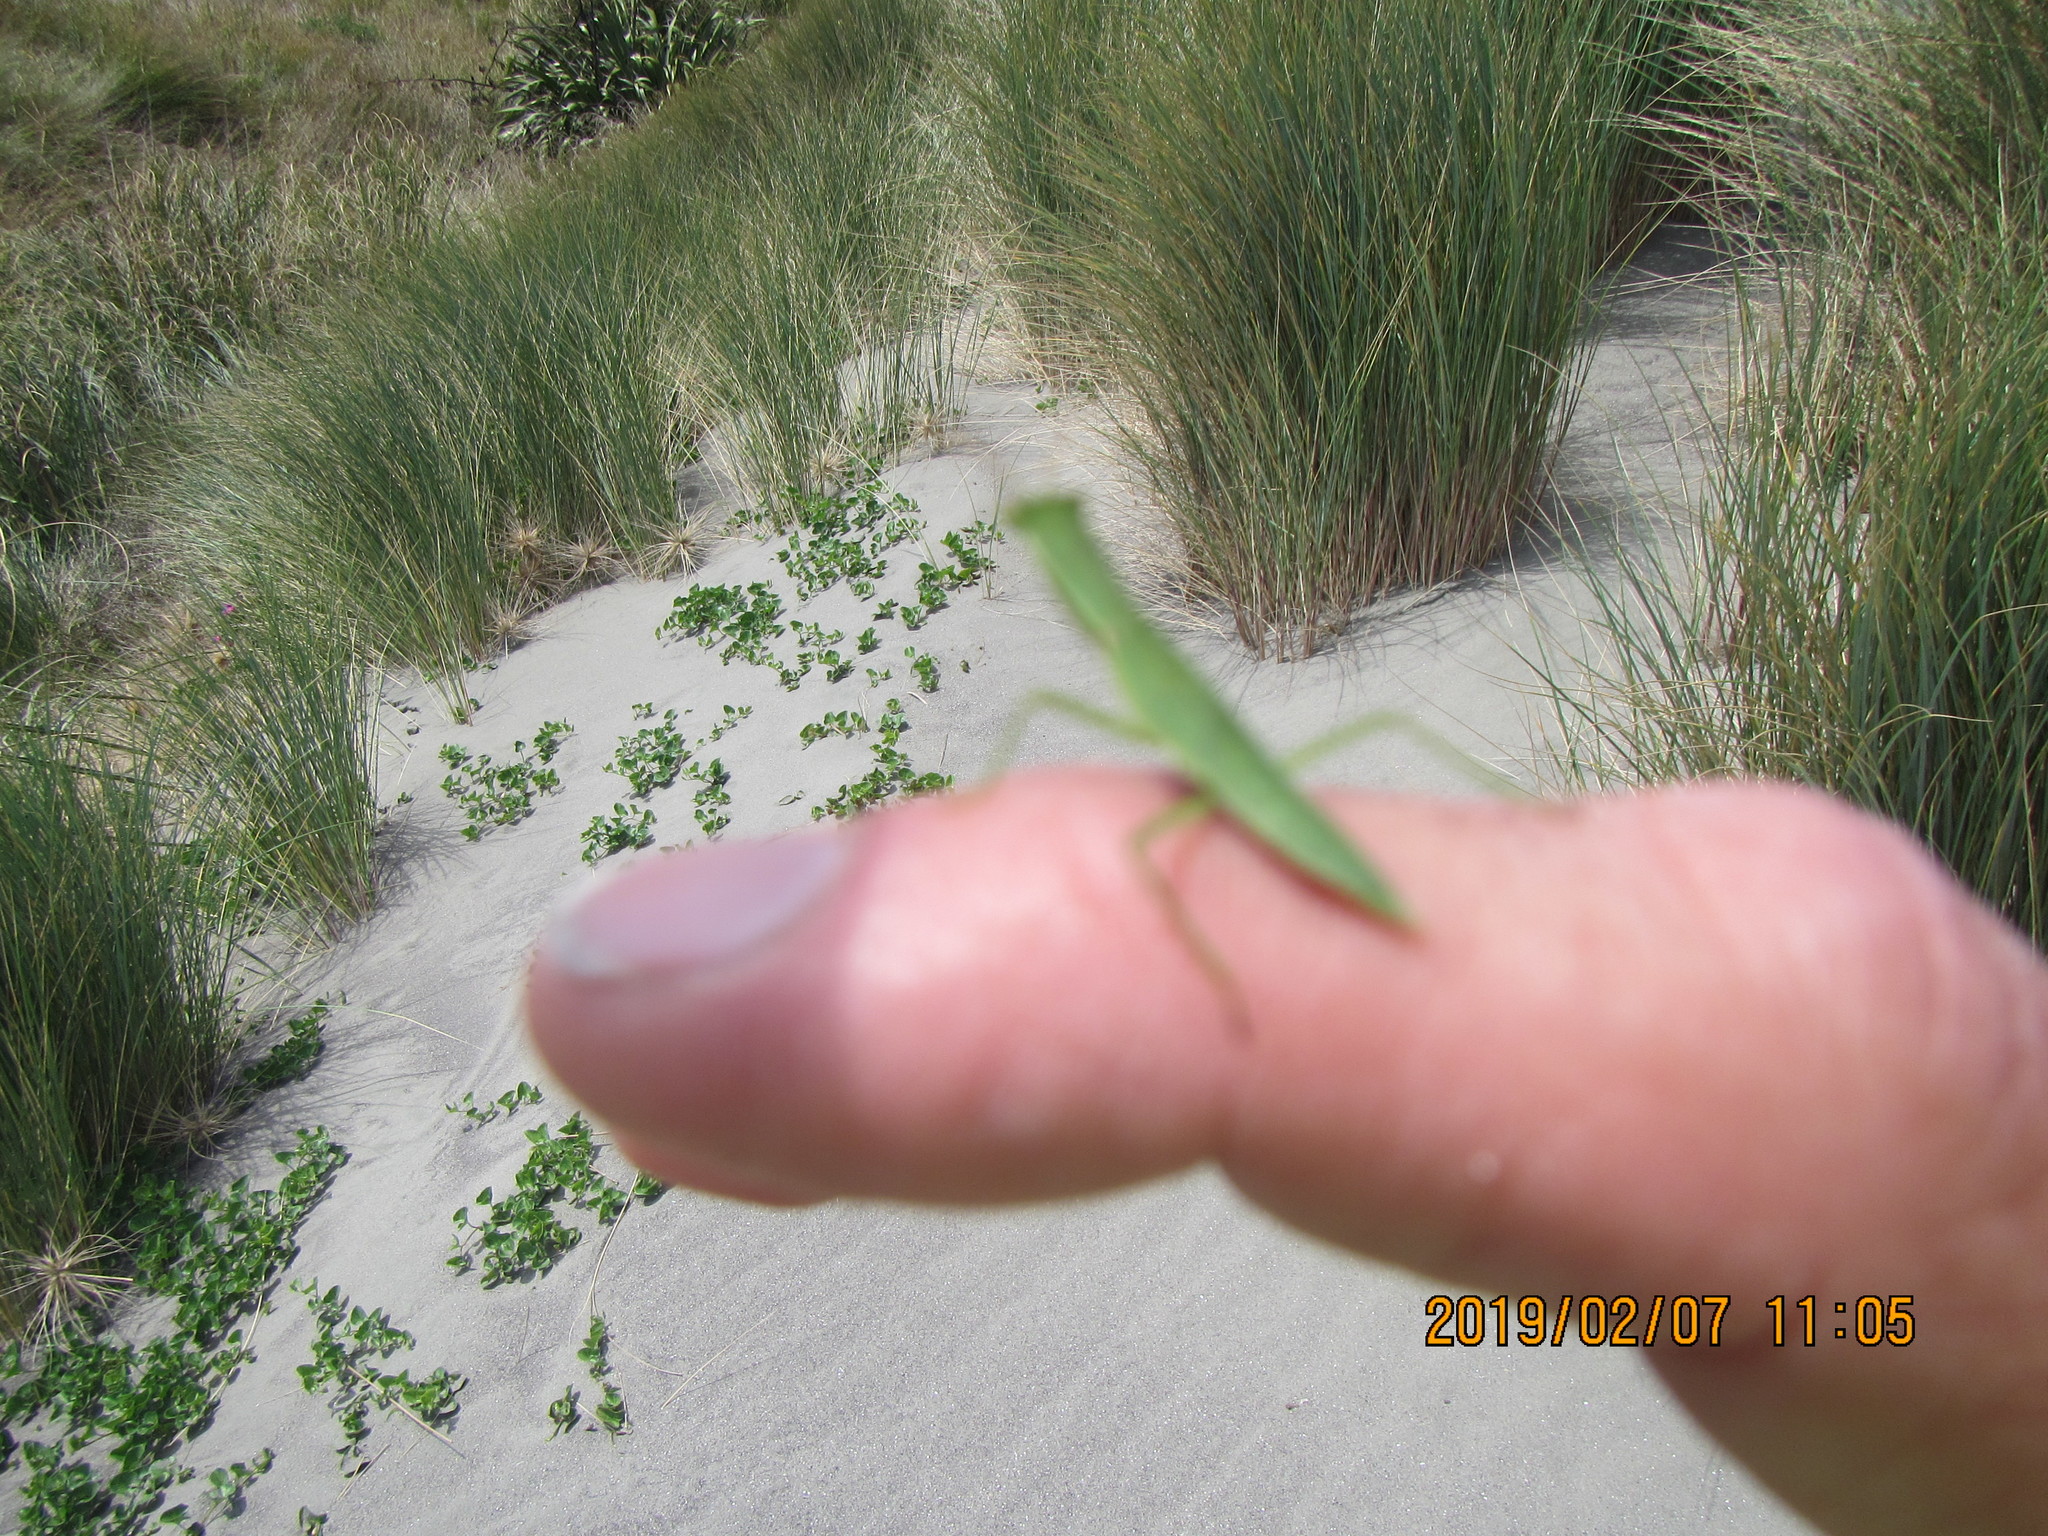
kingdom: Animalia
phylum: Arthropoda
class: Insecta
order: Mantodea
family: Mantidae
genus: Orthodera
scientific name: Orthodera novaezealandiae
